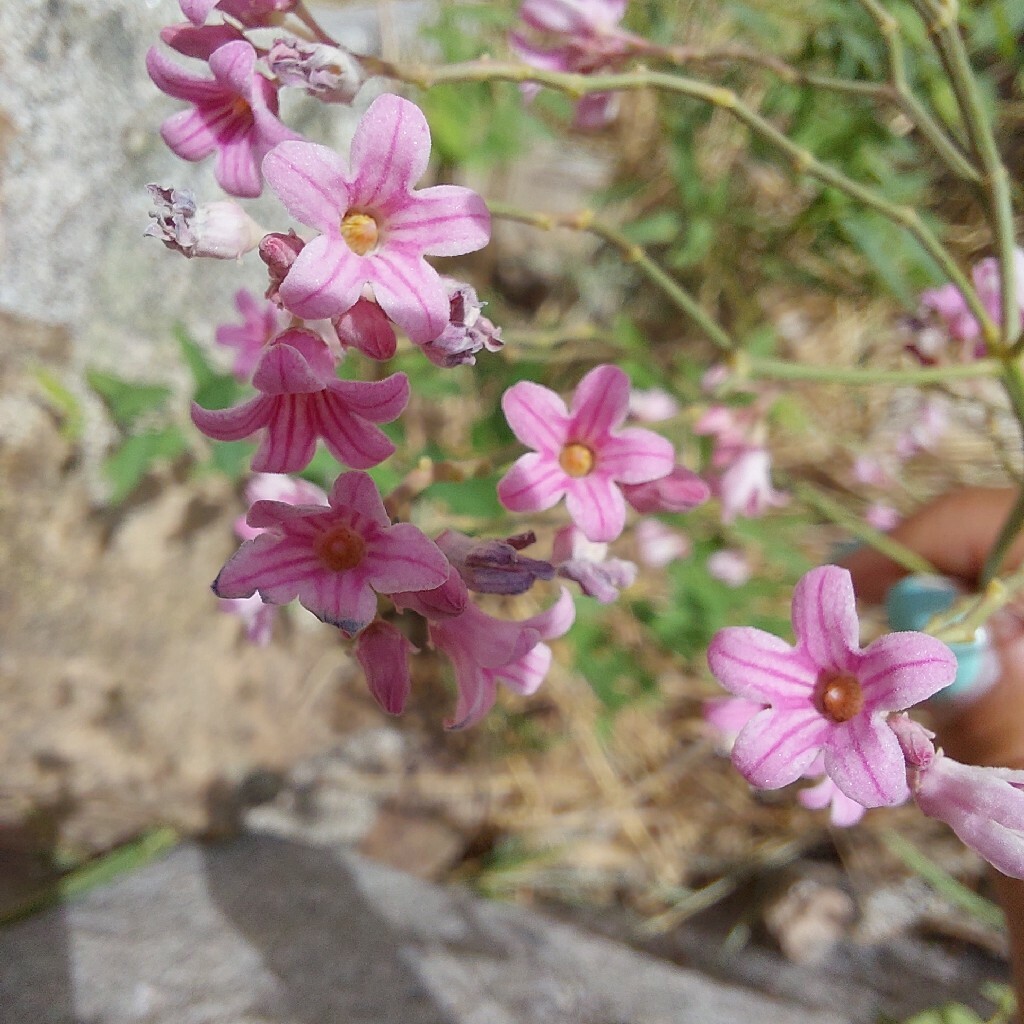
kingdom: Plantae
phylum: Tracheophyta
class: Magnoliopsida
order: Gentianales
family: Apocynaceae
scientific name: Apocynaceae
